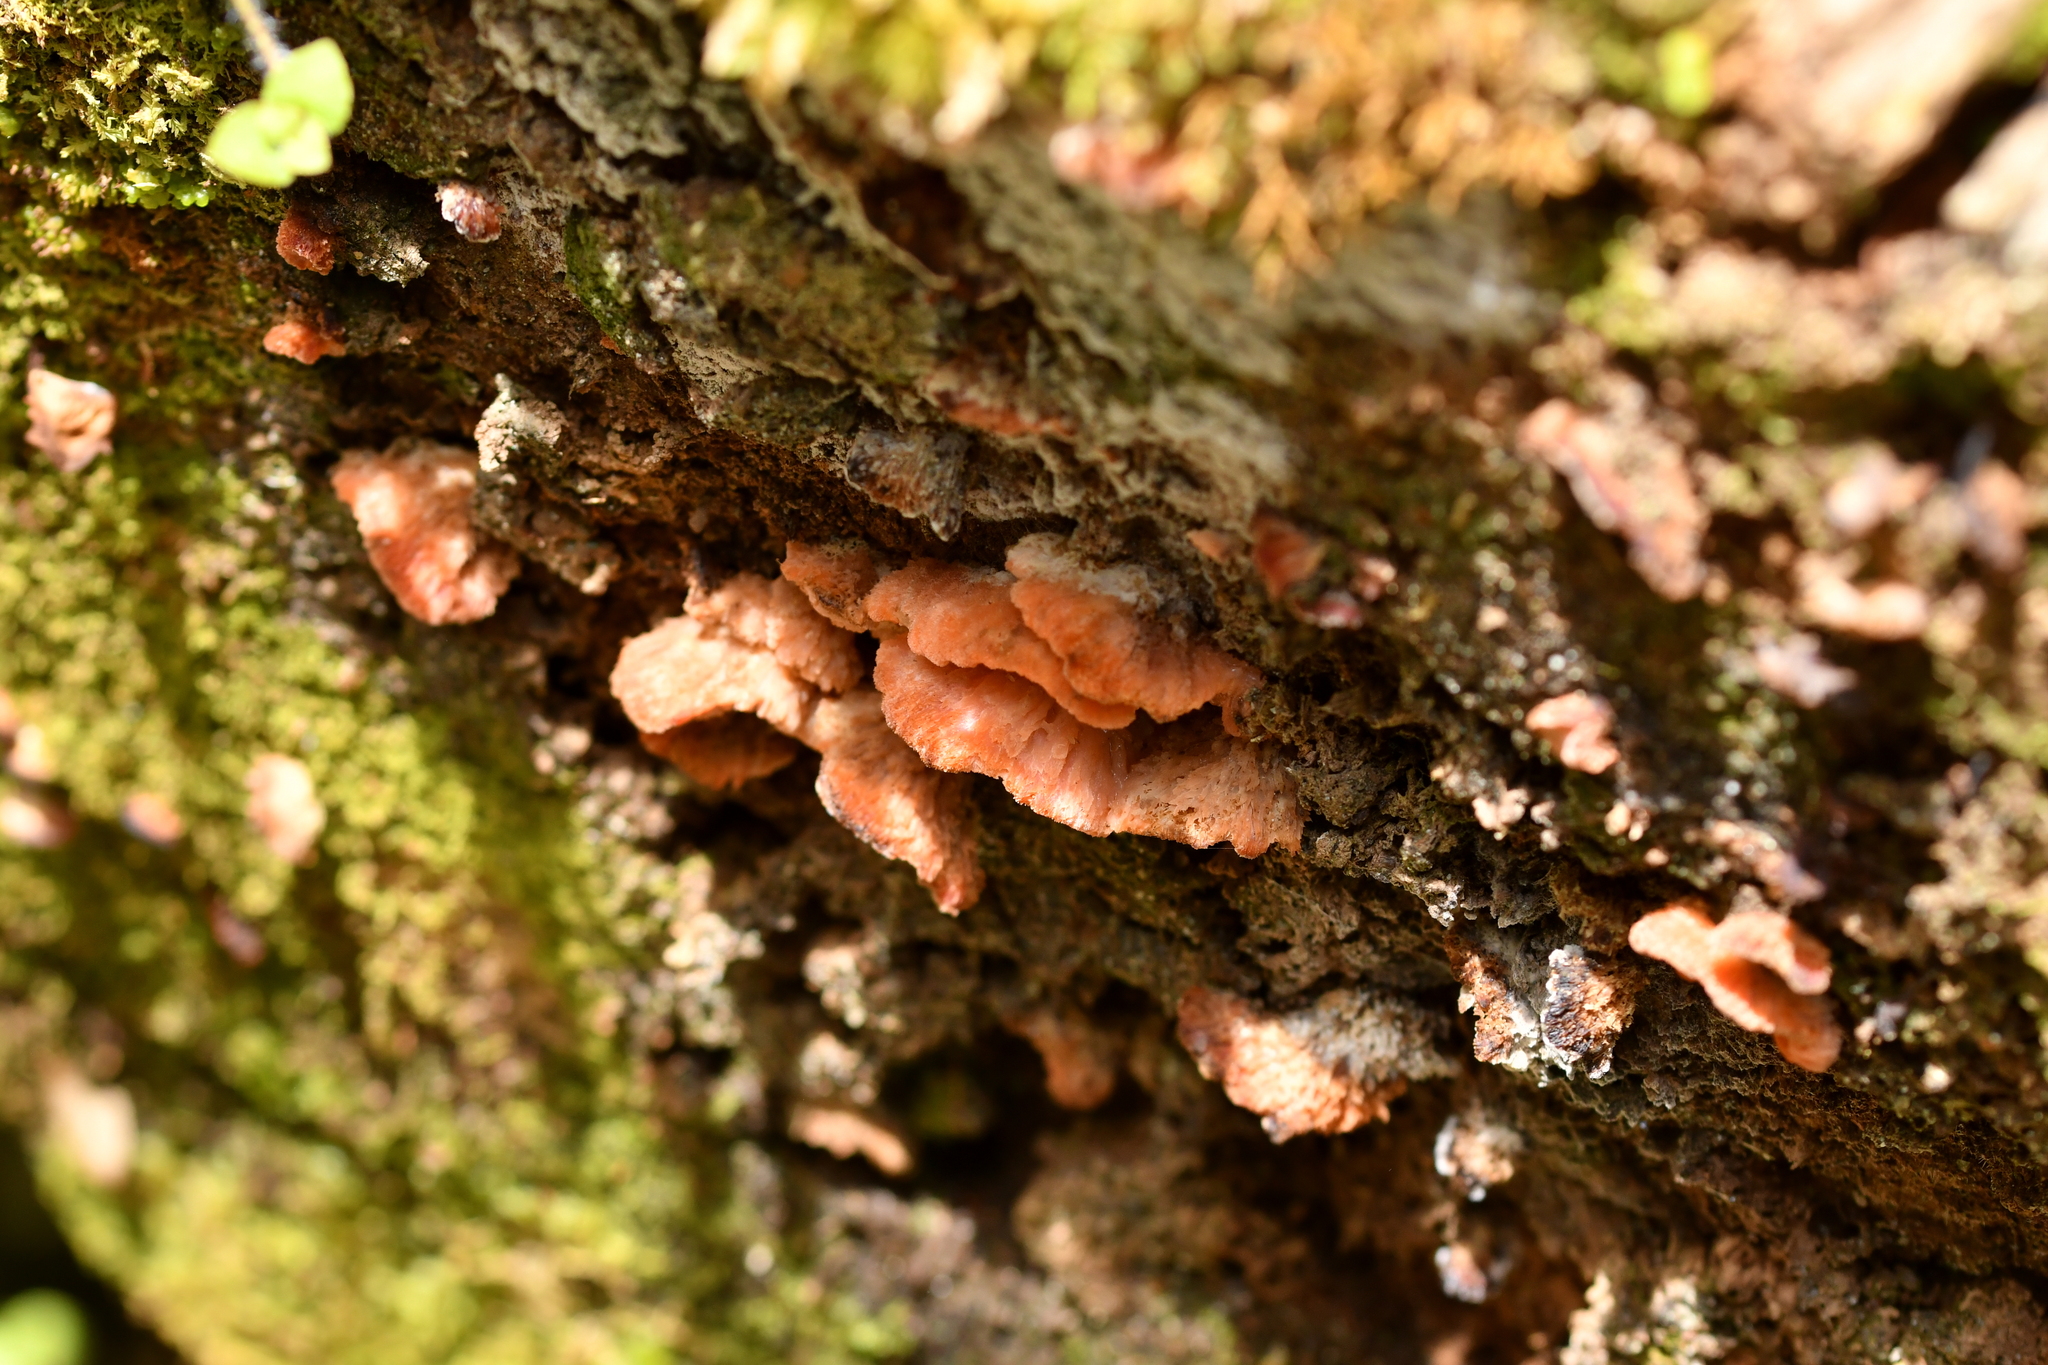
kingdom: Fungi
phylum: Basidiomycota
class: Agaricomycetes
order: Polyporales
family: Incrustoporiaceae
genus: Tyromyces
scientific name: Tyromyces pulcherrimus
